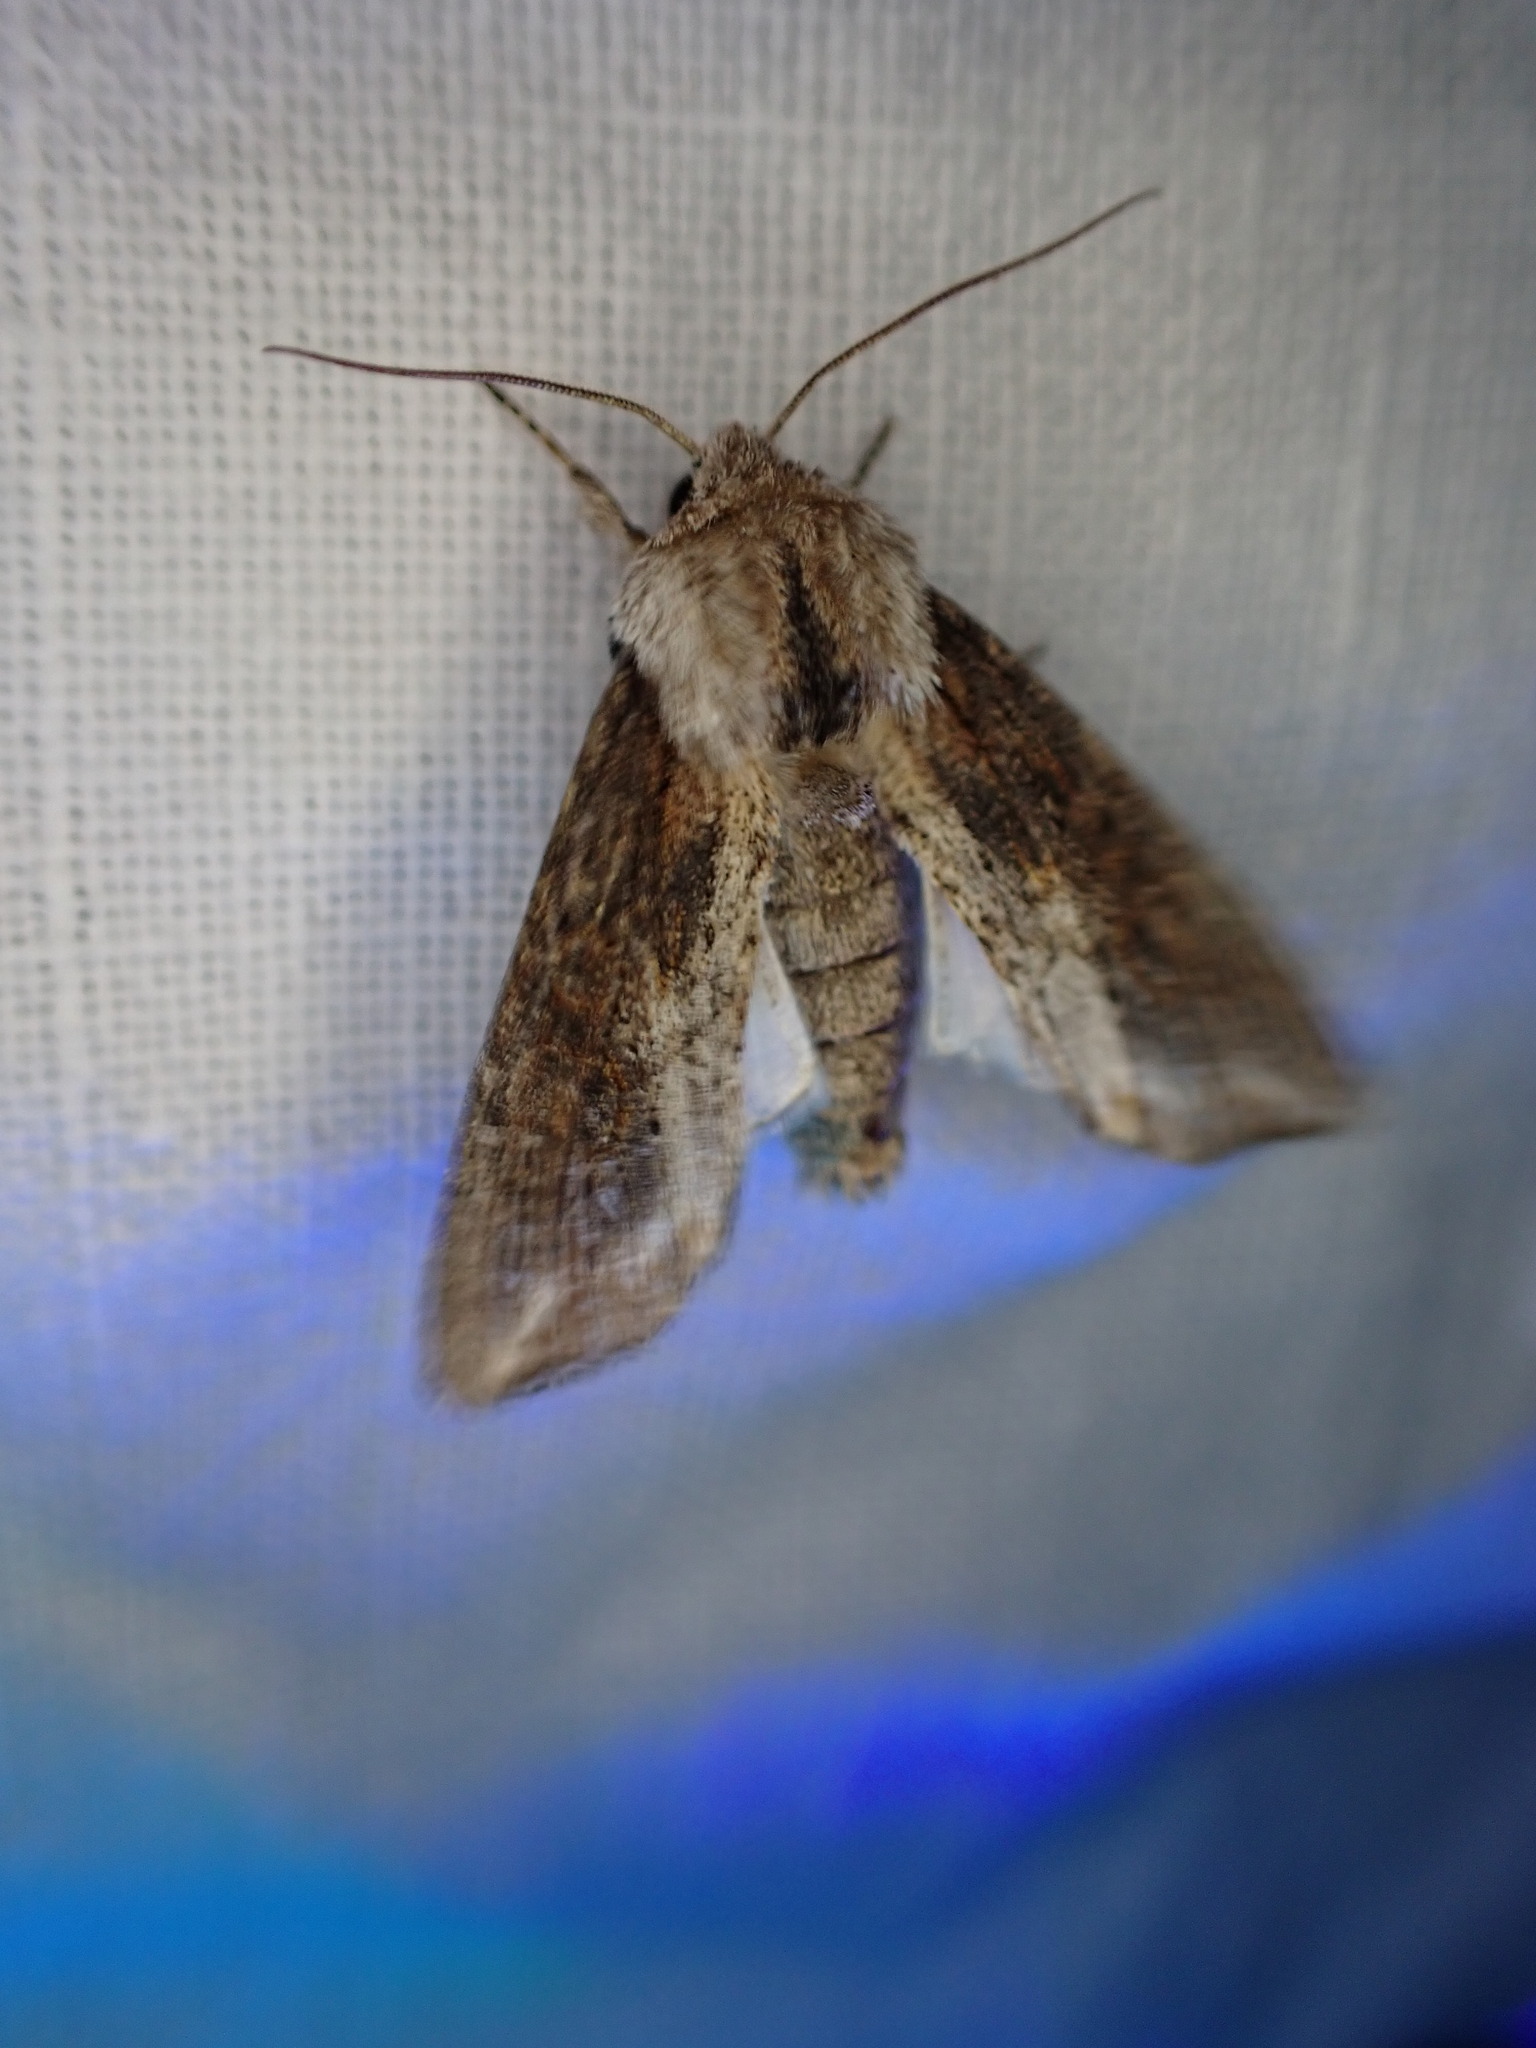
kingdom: Animalia
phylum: Arthropoda
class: Insecta
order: Lepidoptera
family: Noctuidae
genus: Egira
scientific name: Egira conspicillaris
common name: Silver cloud
